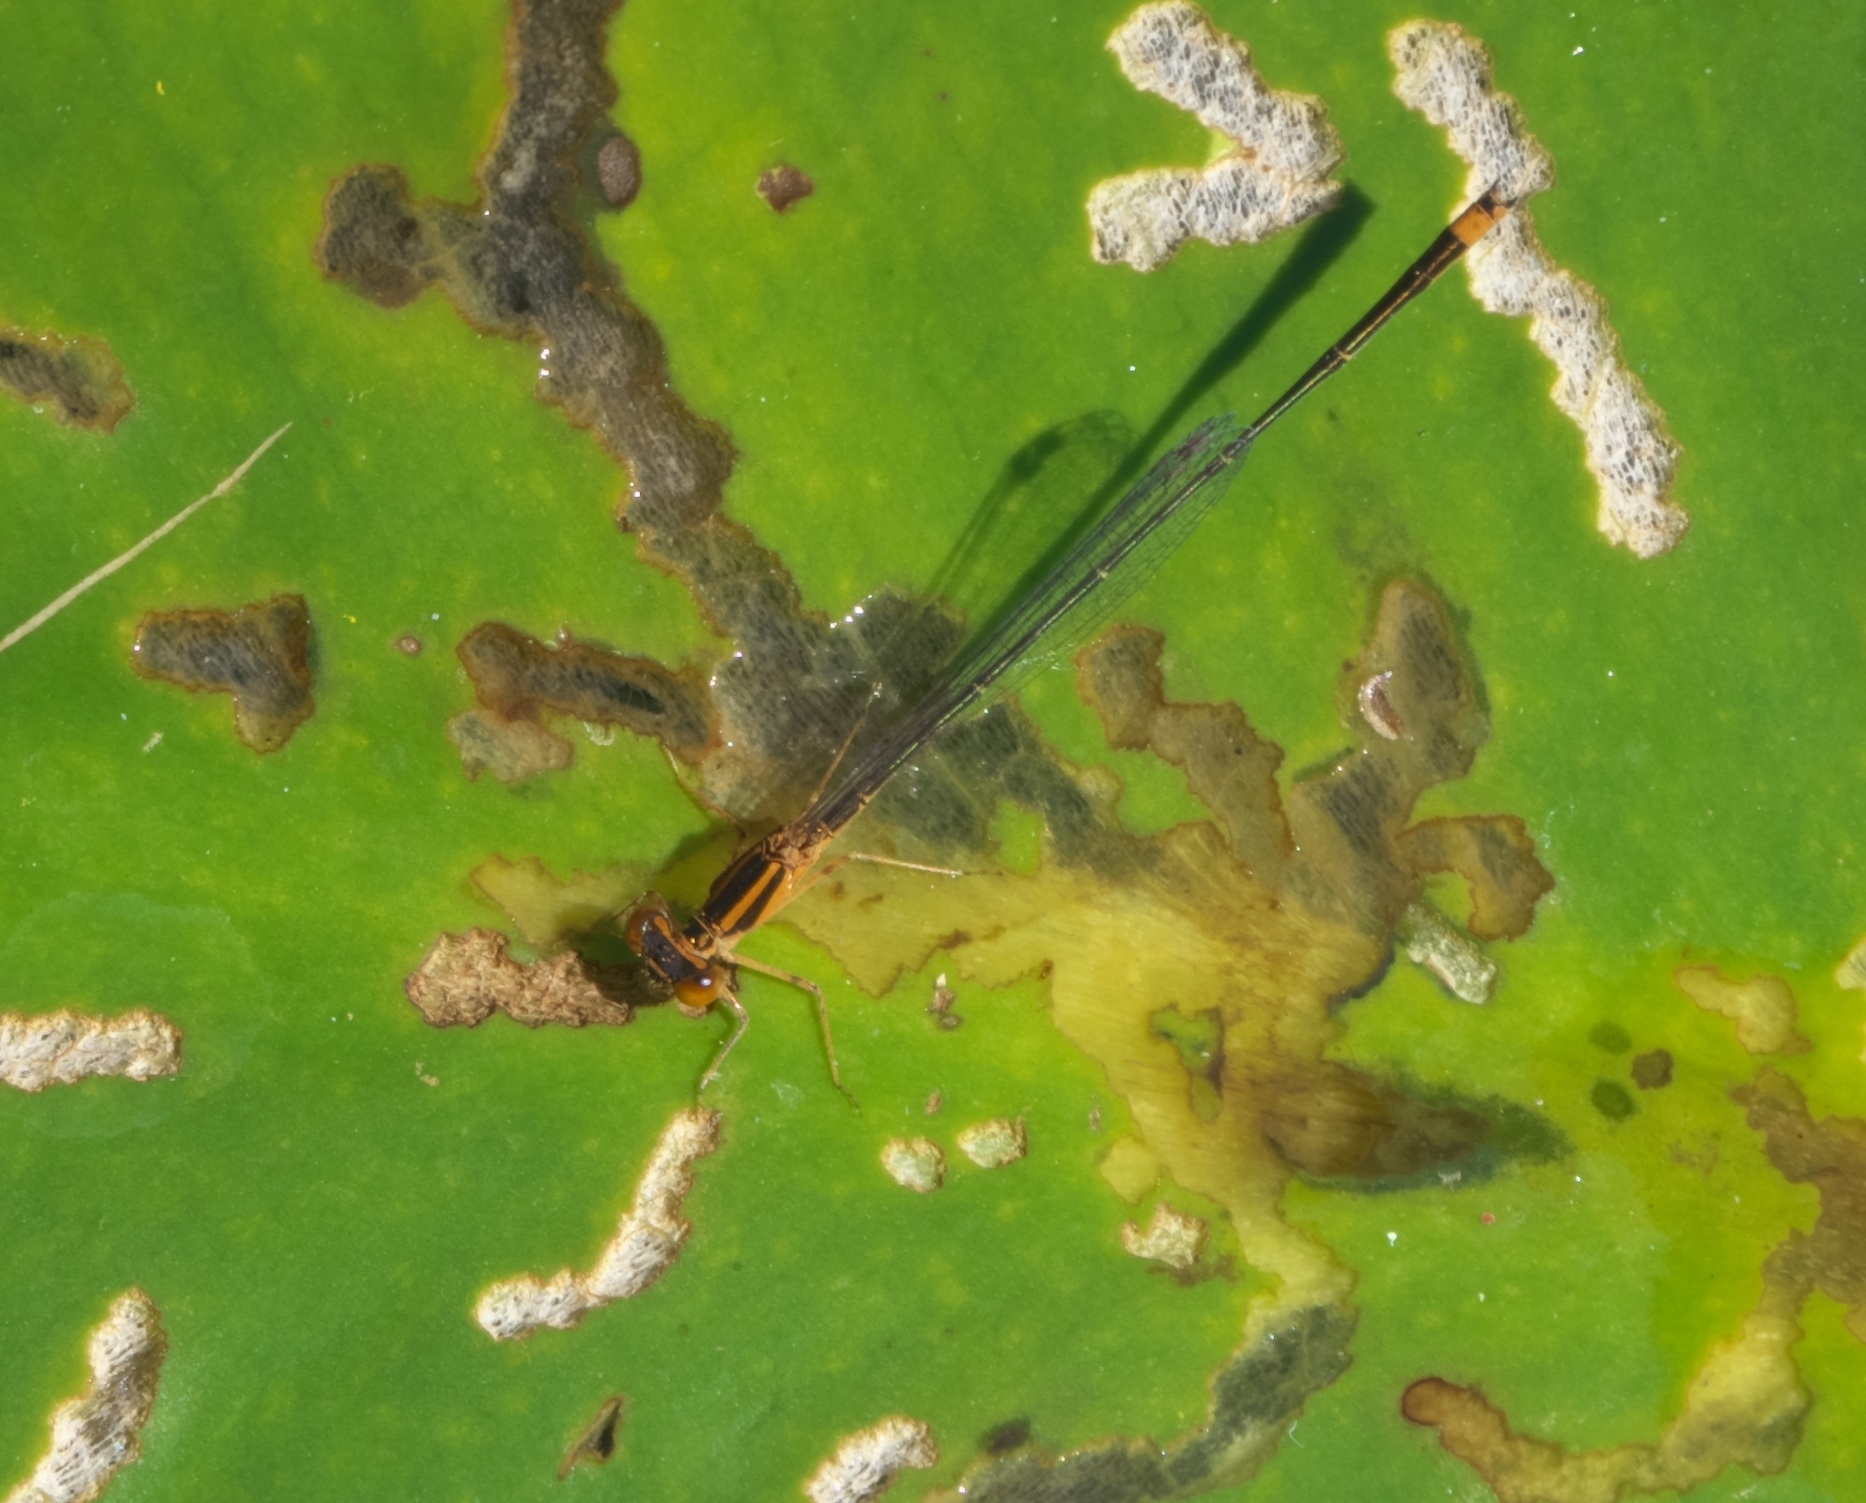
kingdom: Animalia
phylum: Arthropoda
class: Insecta
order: Odonata
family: Coenagrionidae
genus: Enallagma
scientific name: Enallagma signatum
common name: Orange bluet
